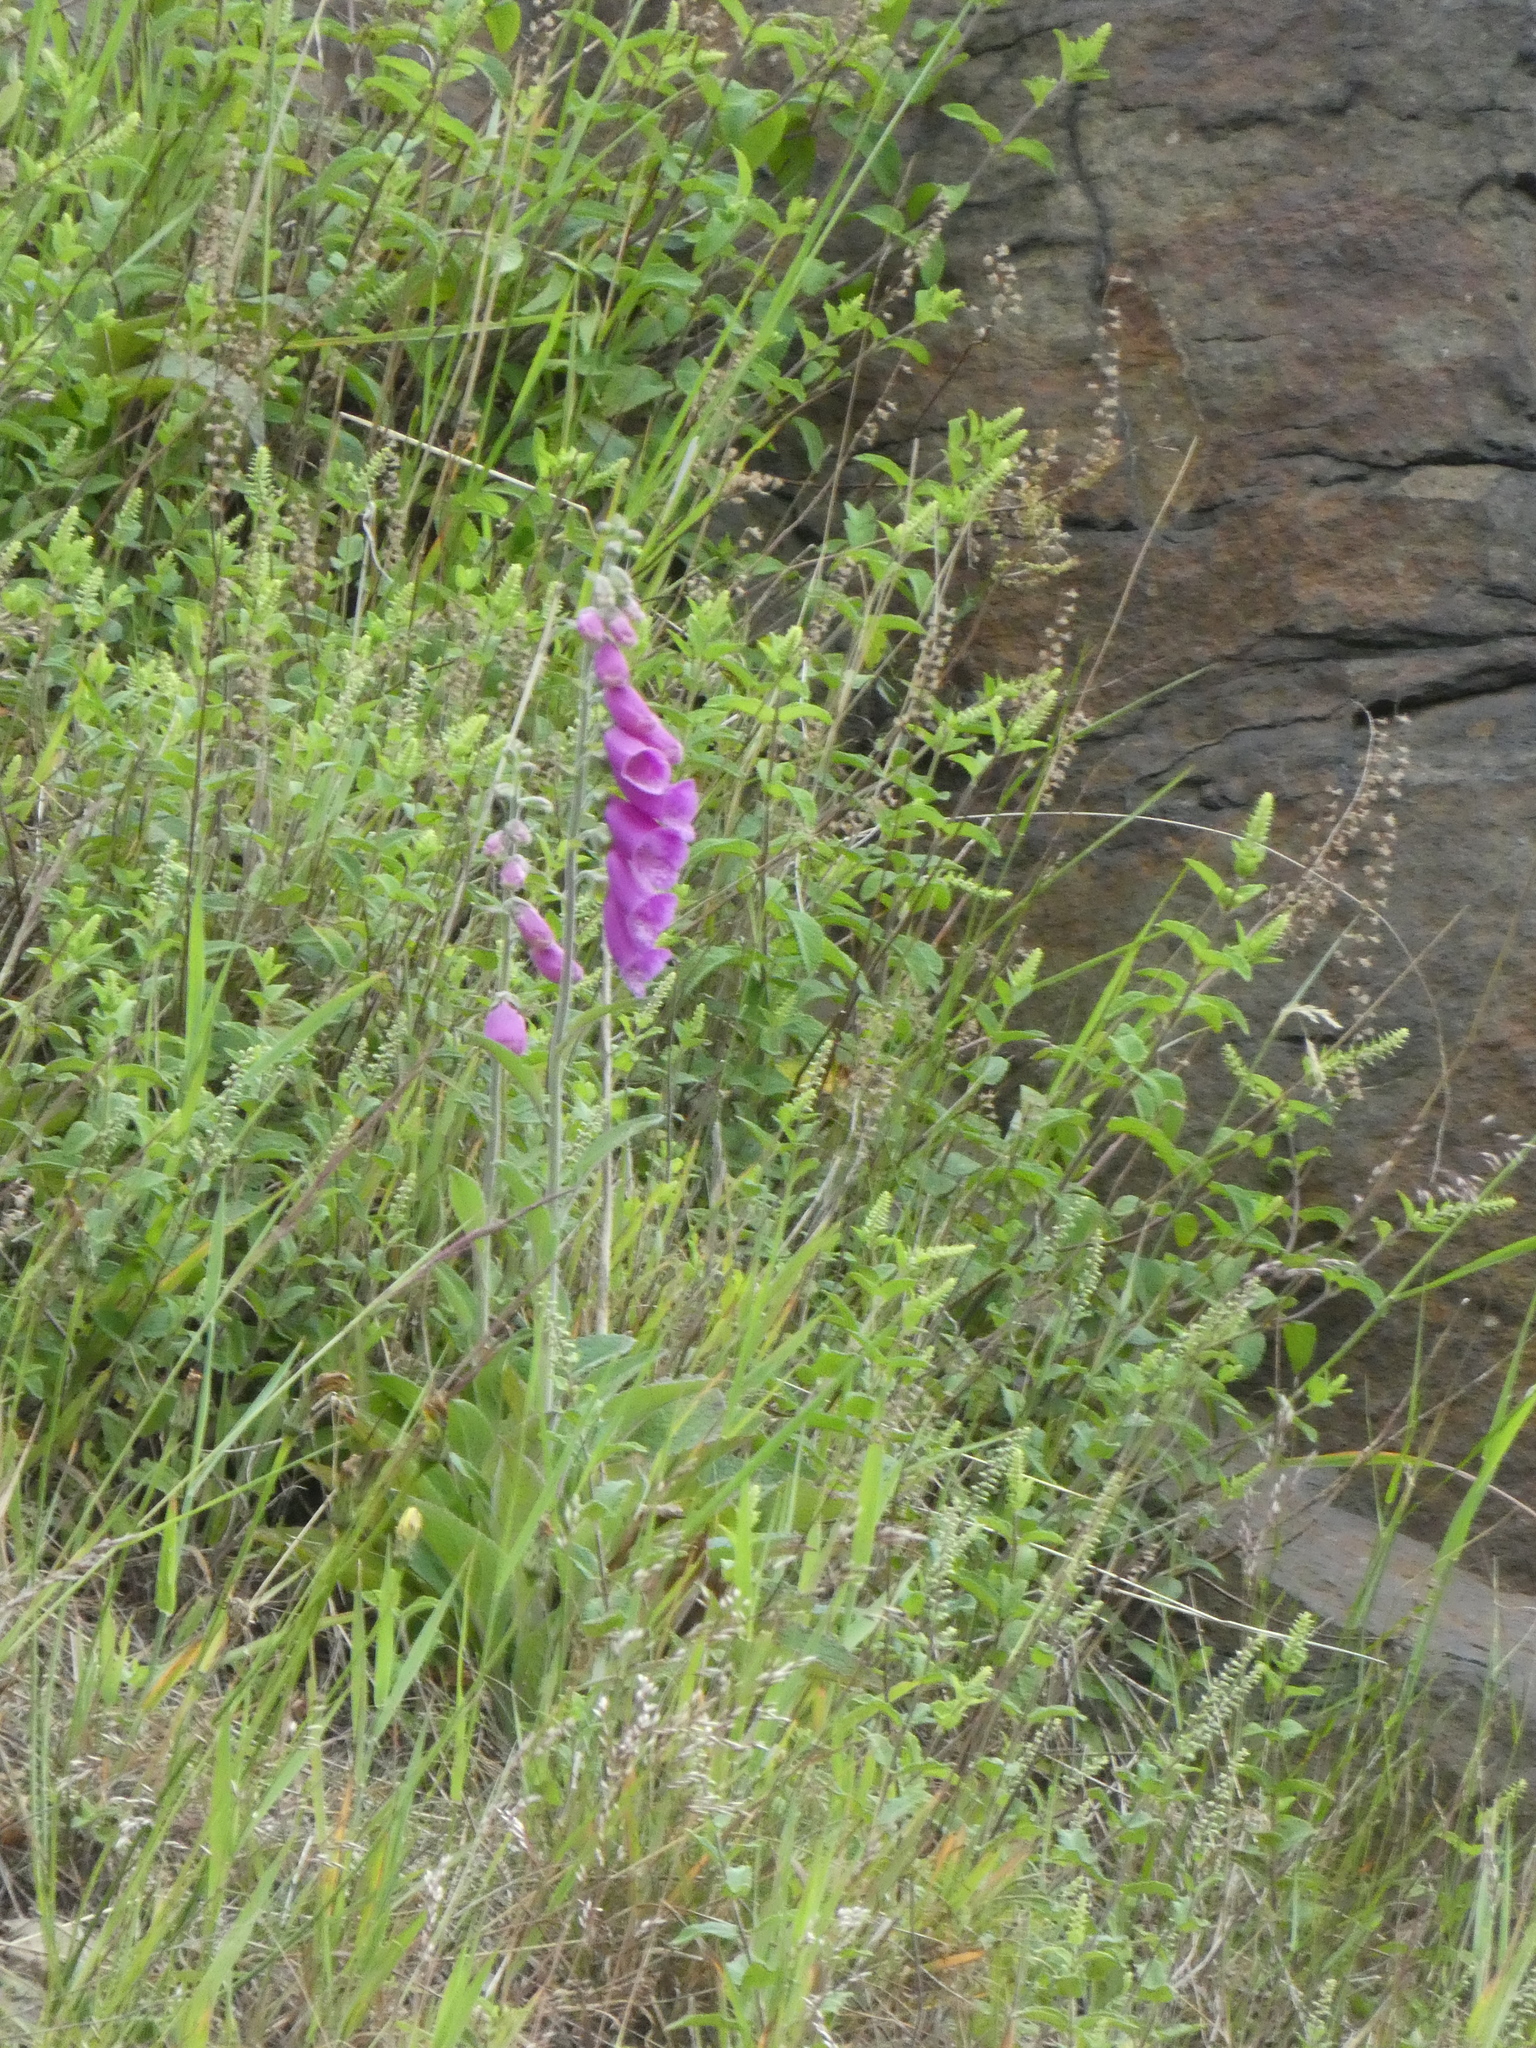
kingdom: Plantae
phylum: Tracheophyta
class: Magnoliopsida
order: Lamiales
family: Plantaginaceae
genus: Digitalis
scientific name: Digitalis purpurea
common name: Foxglove
